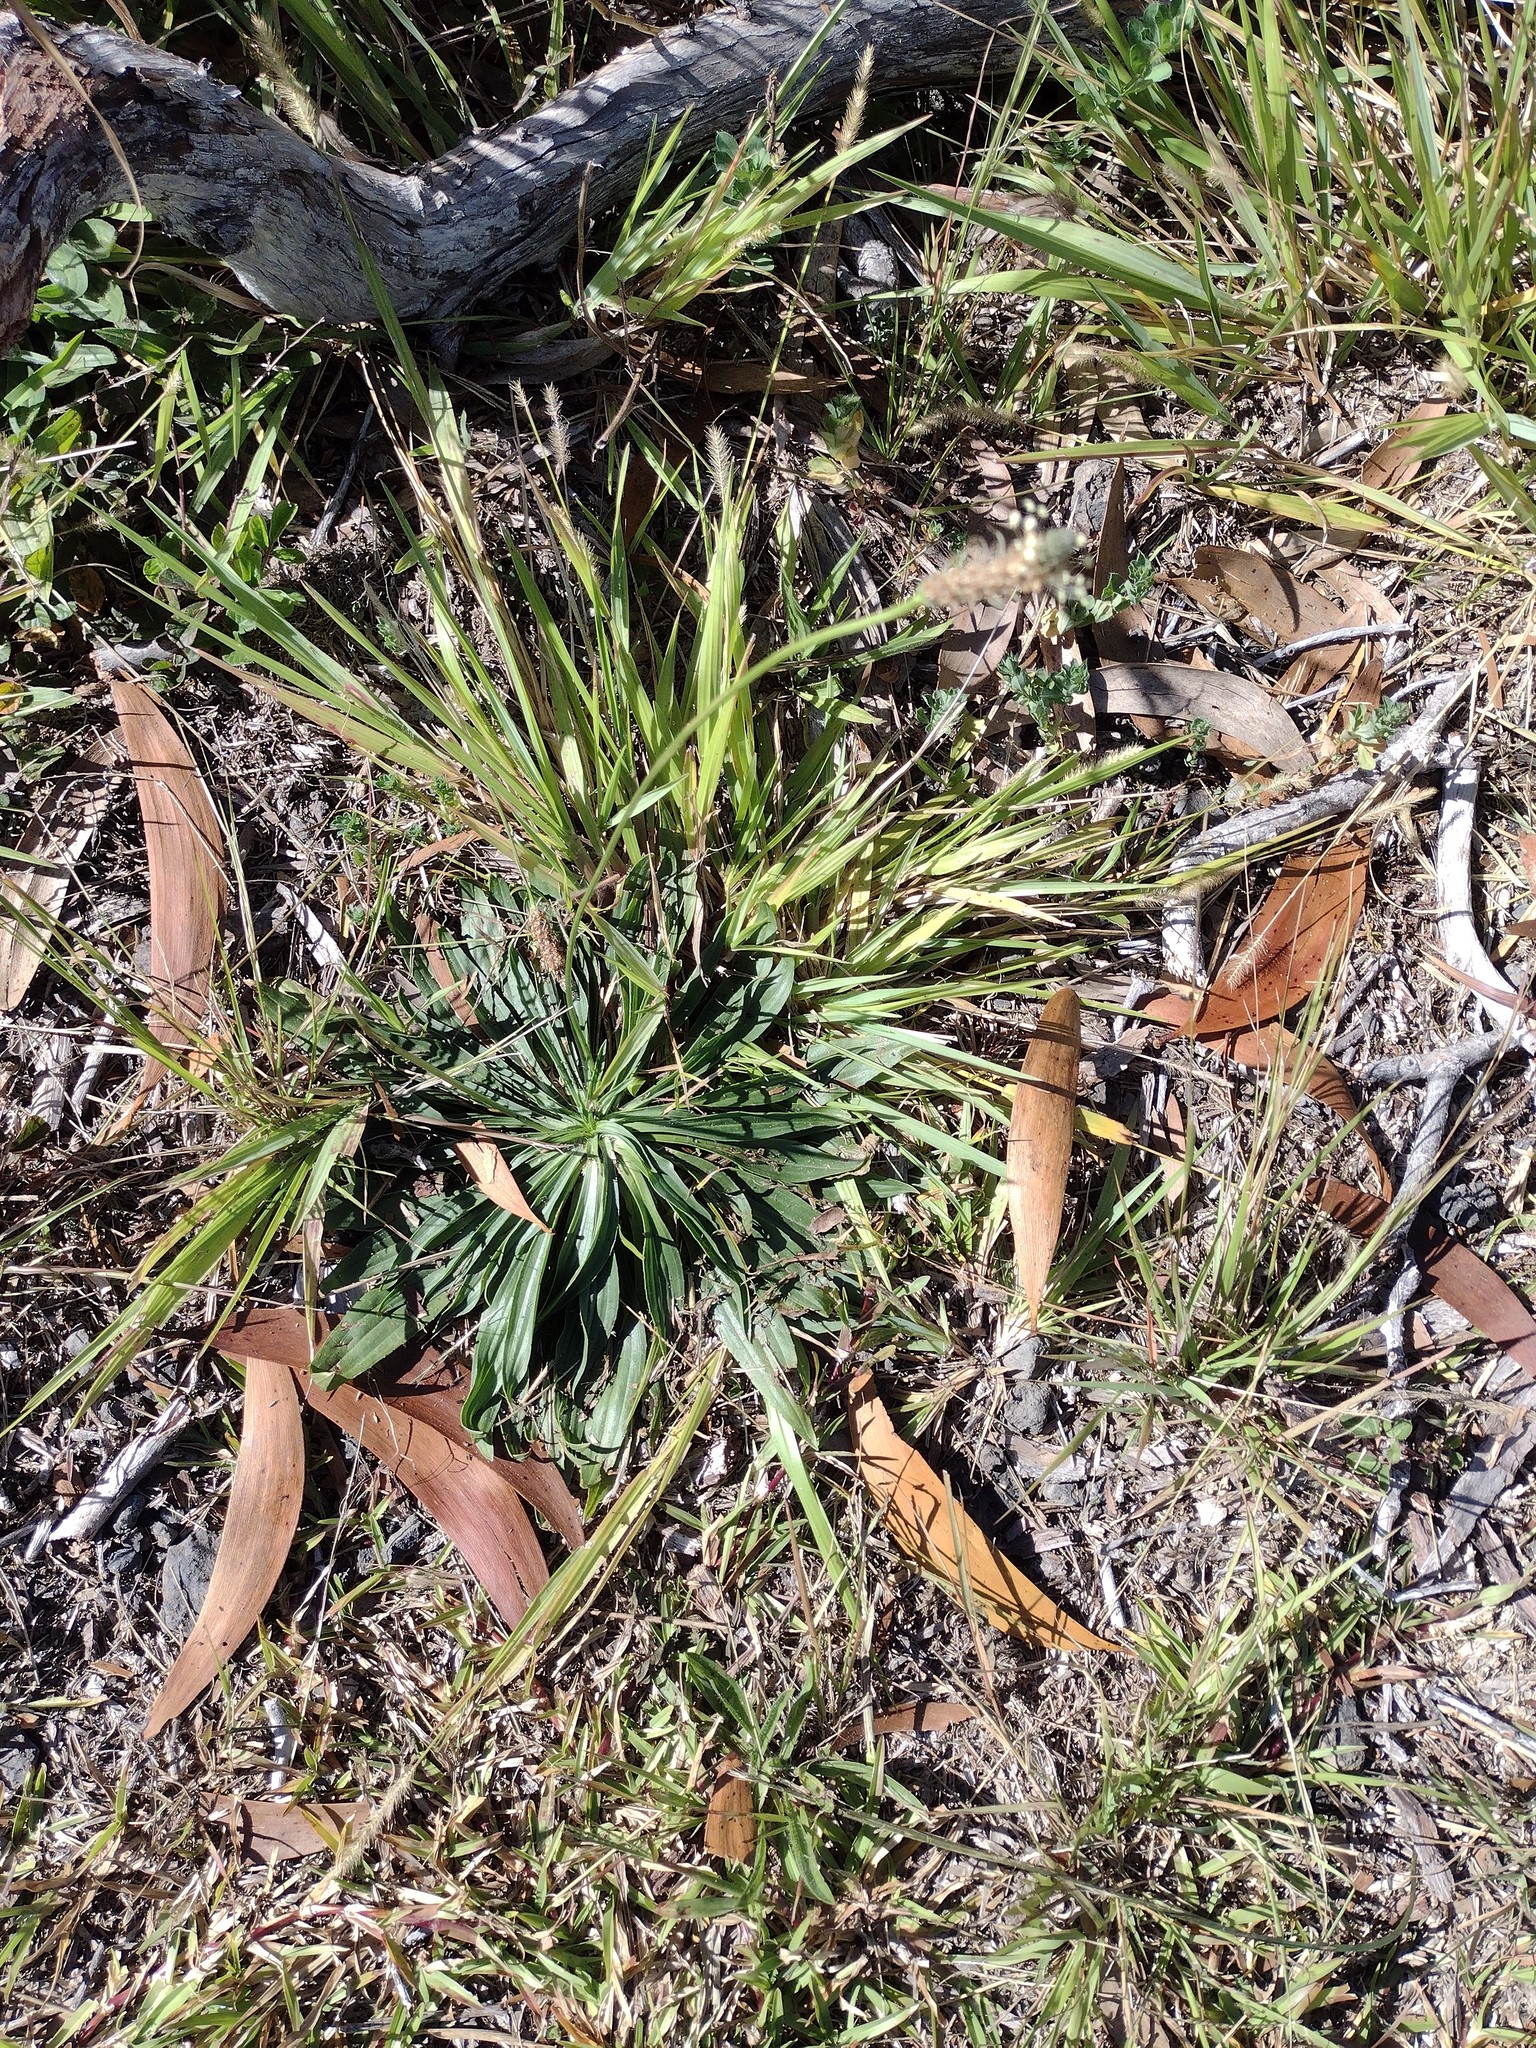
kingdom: Plantae
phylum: Tracheophyta
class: Magnoliopsida
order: Lamiales
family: Plantaginaceae
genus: Plantago
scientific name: Plantago lanceolata
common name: Ribwort plantain
